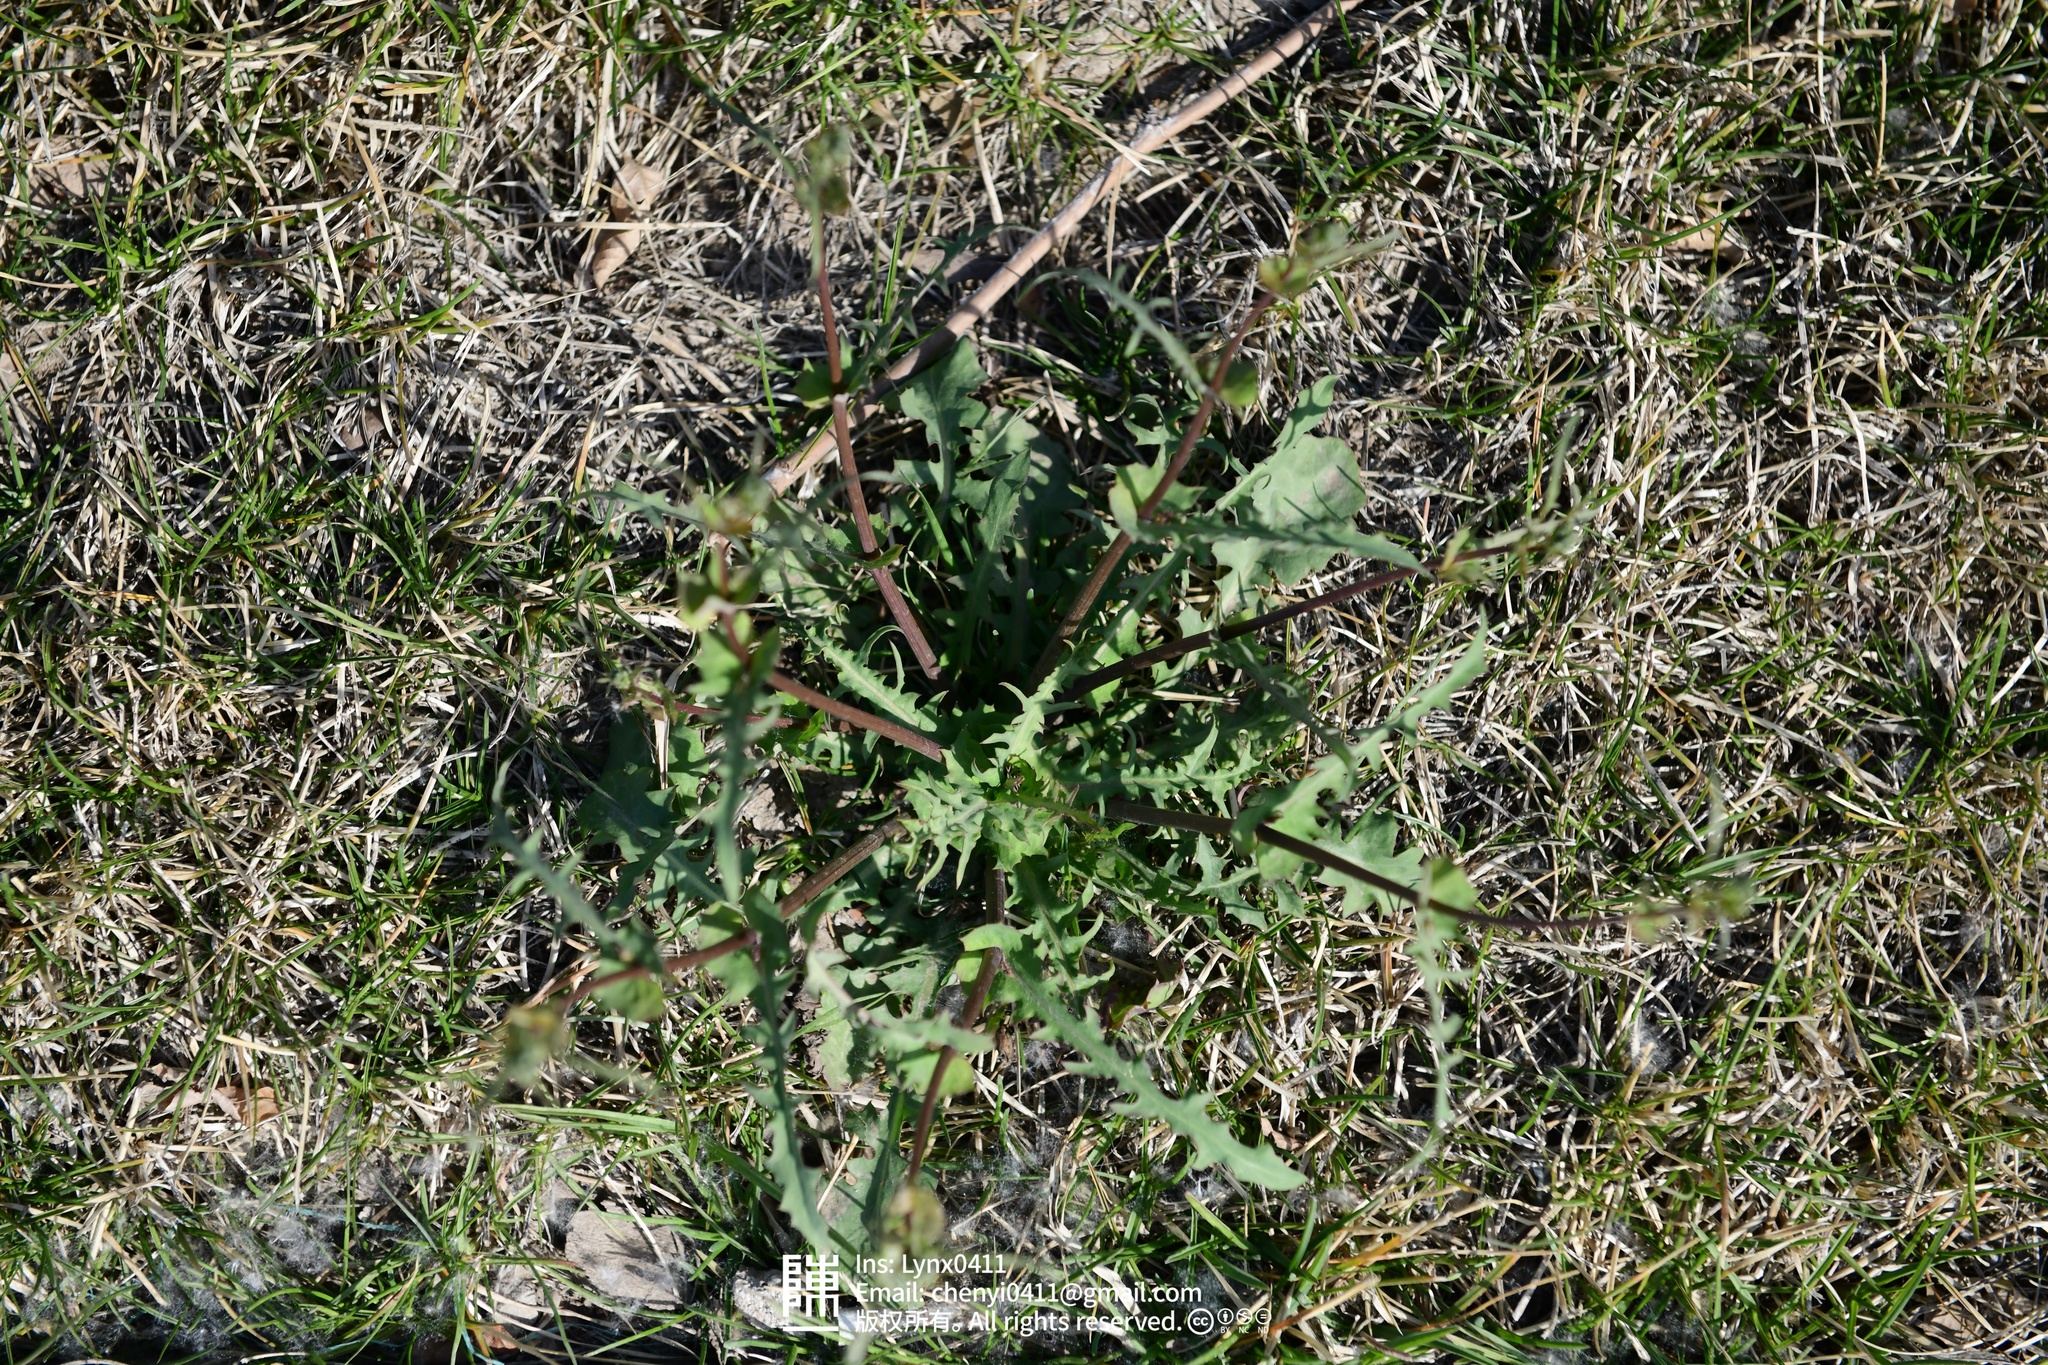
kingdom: Plantae
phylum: Tracheophyta
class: Magnoliopsida
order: Asterales
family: Asteraceae
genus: Crepidiastrum
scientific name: Crepidiastrum sonchifolium
